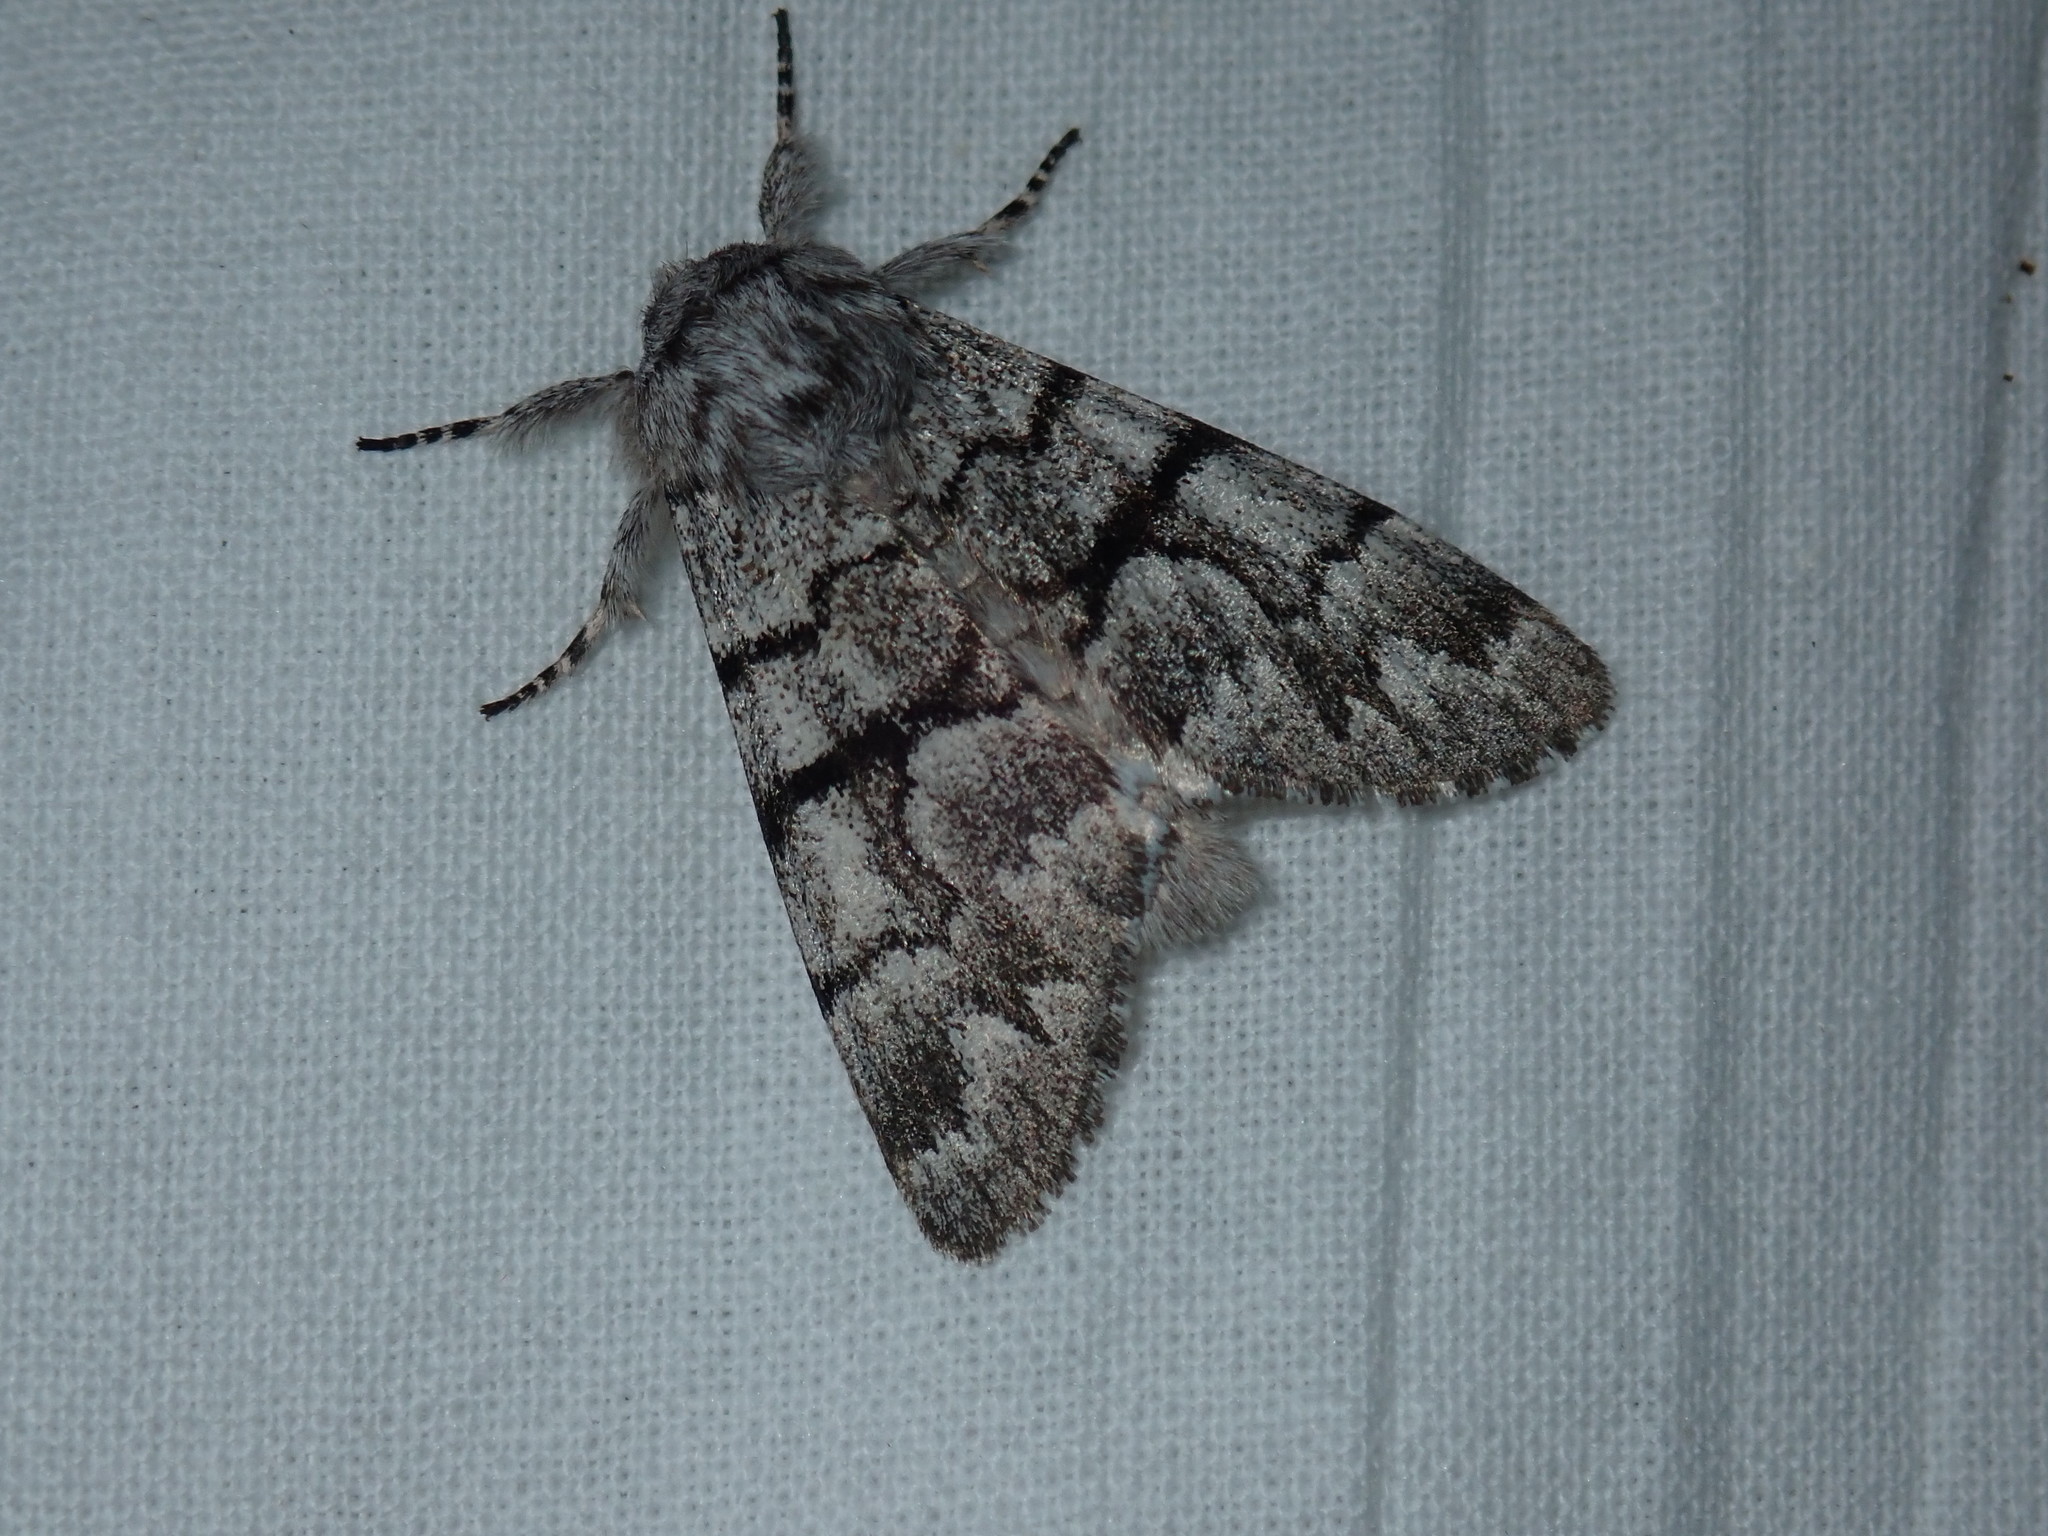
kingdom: Animalia
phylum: Arthropoda
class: Insecta
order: Lepidoptera
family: Noctuidae
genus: Panthea
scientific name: Panthea furcilla
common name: Eastern panthea moth
